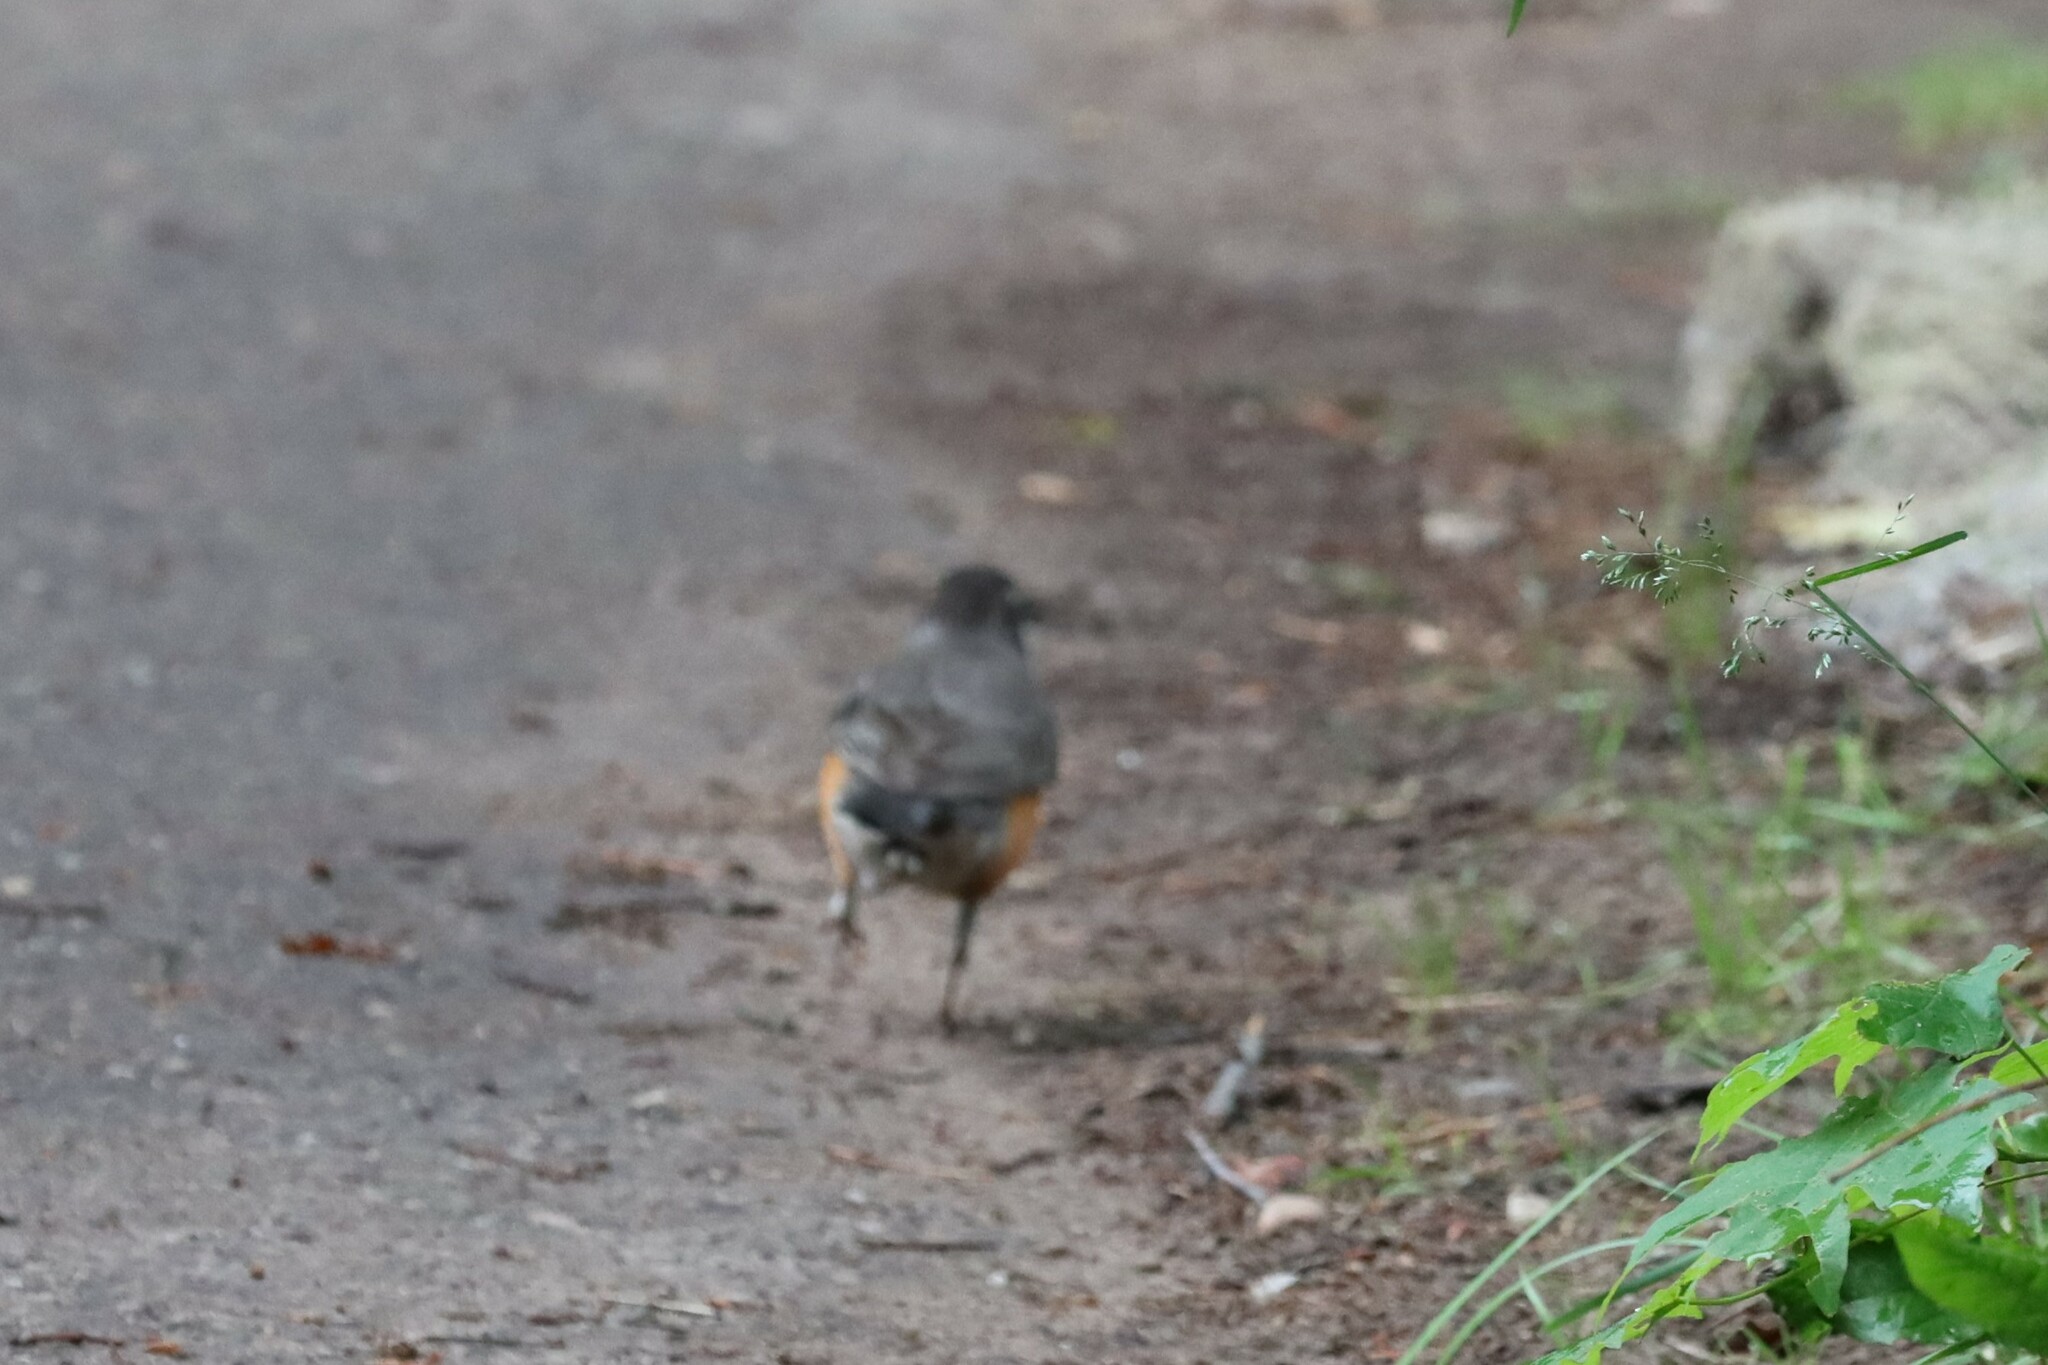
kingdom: Animalia
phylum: Chordata
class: Aves
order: Passeriformes
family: Turdidae
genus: Turdus
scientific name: Turdus migratorius
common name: American robin
